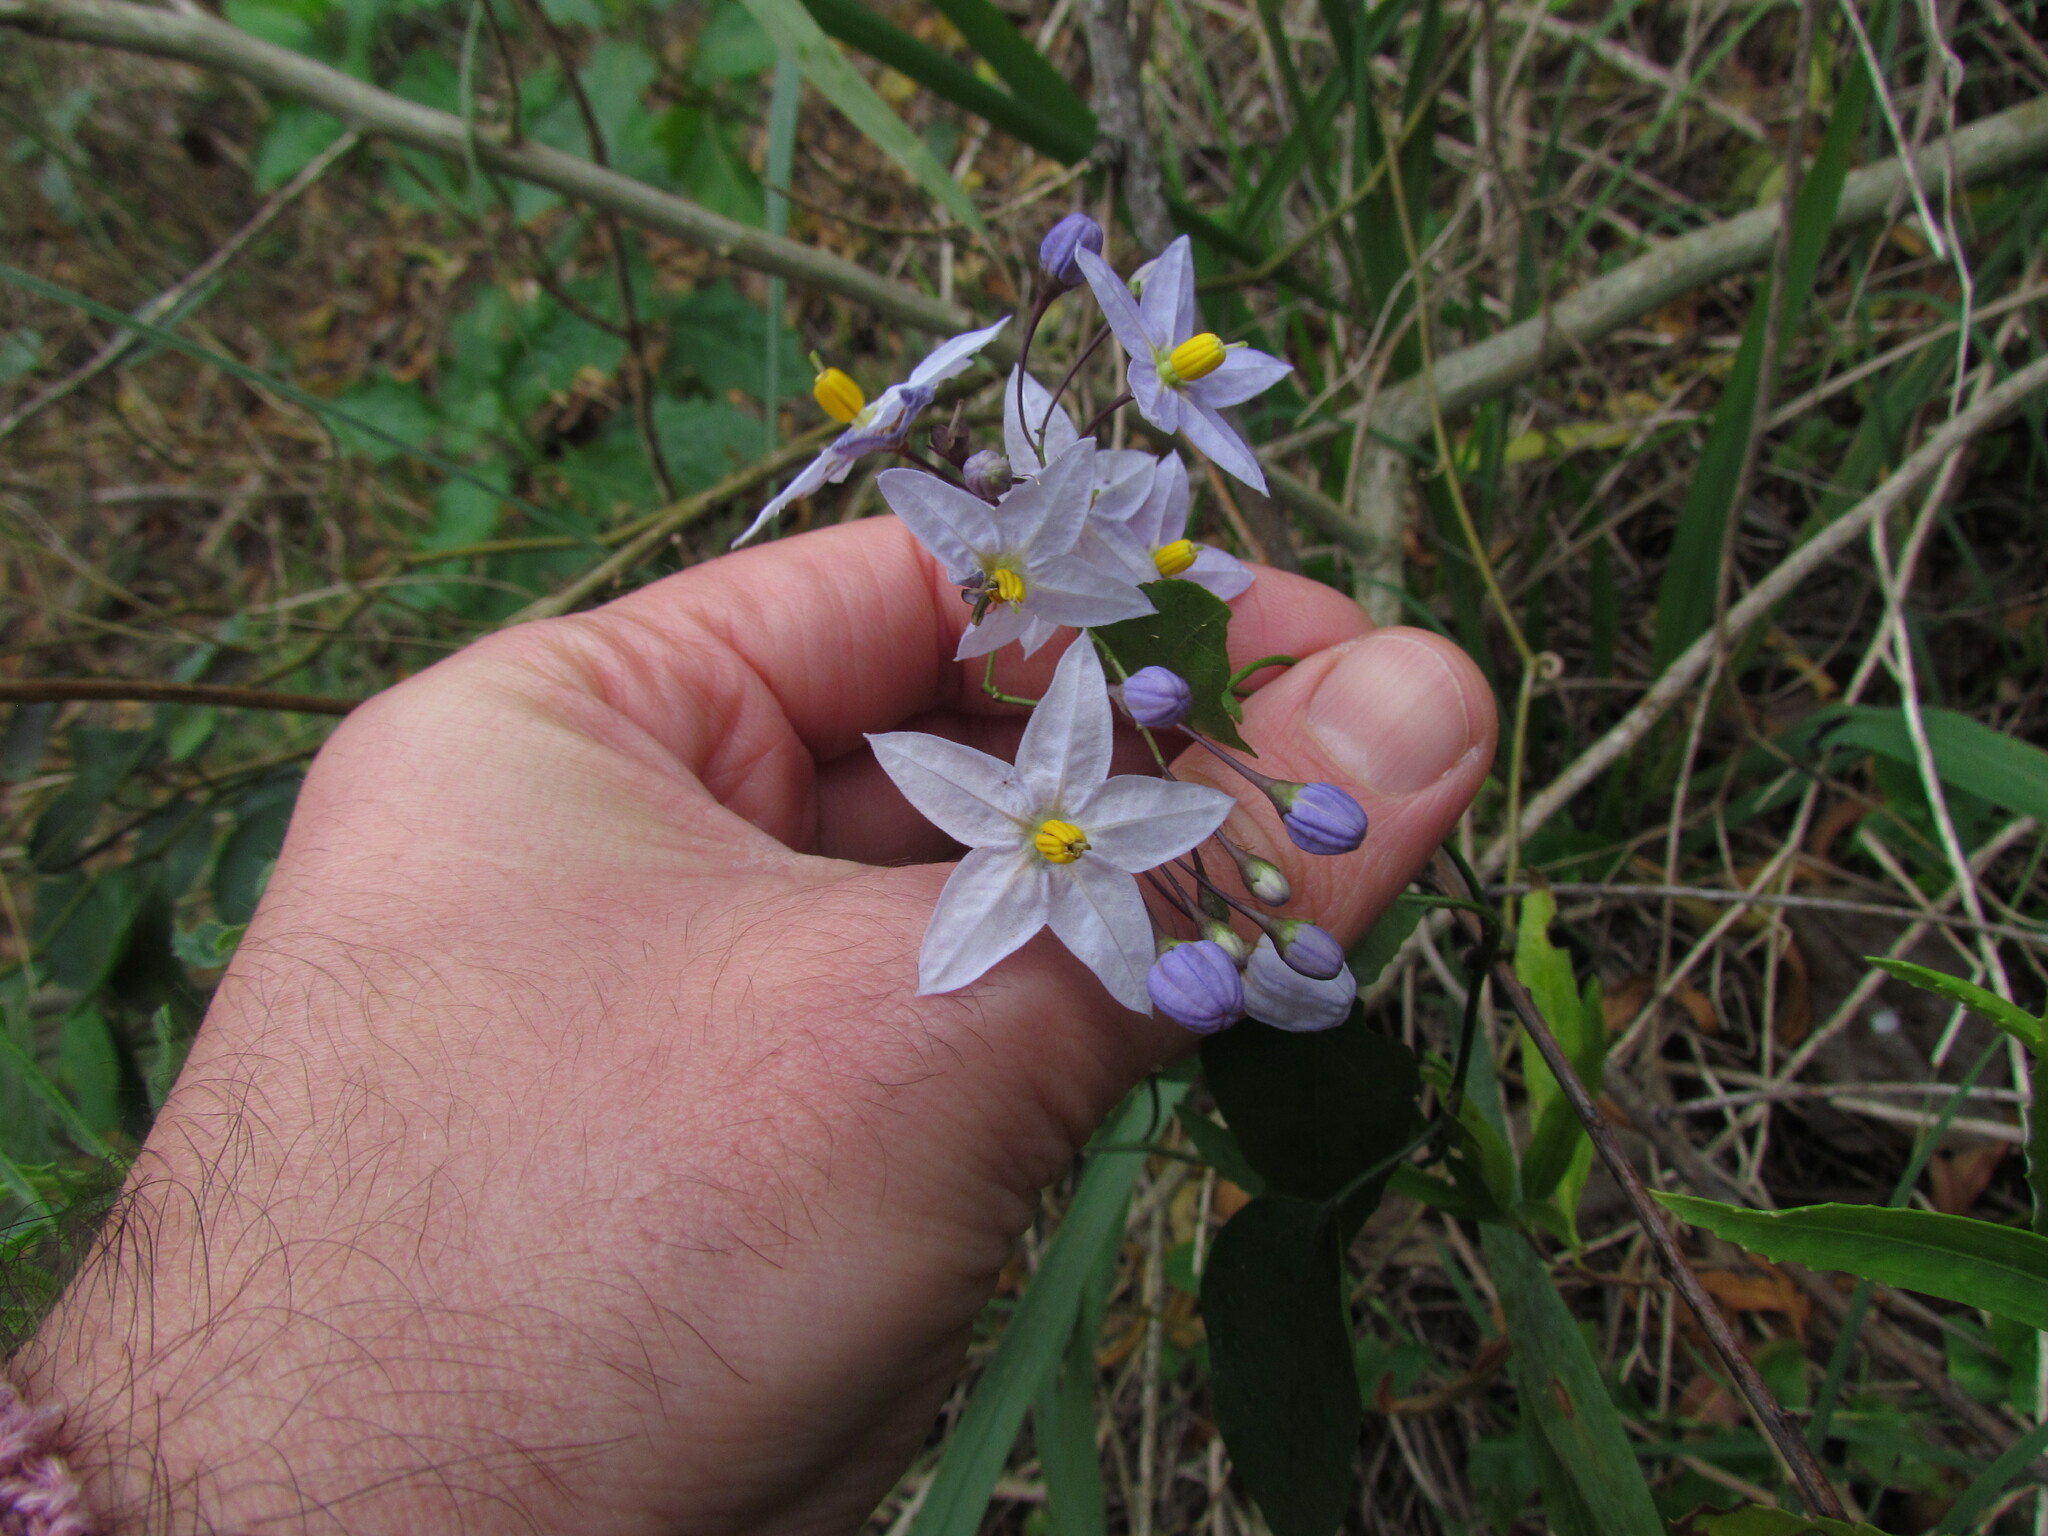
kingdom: Plantae
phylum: Tracheophyta
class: Magnoliopsida
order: Solanales
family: Solanaceae
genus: Solanum
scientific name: Solanum laxum
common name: Nightshade
